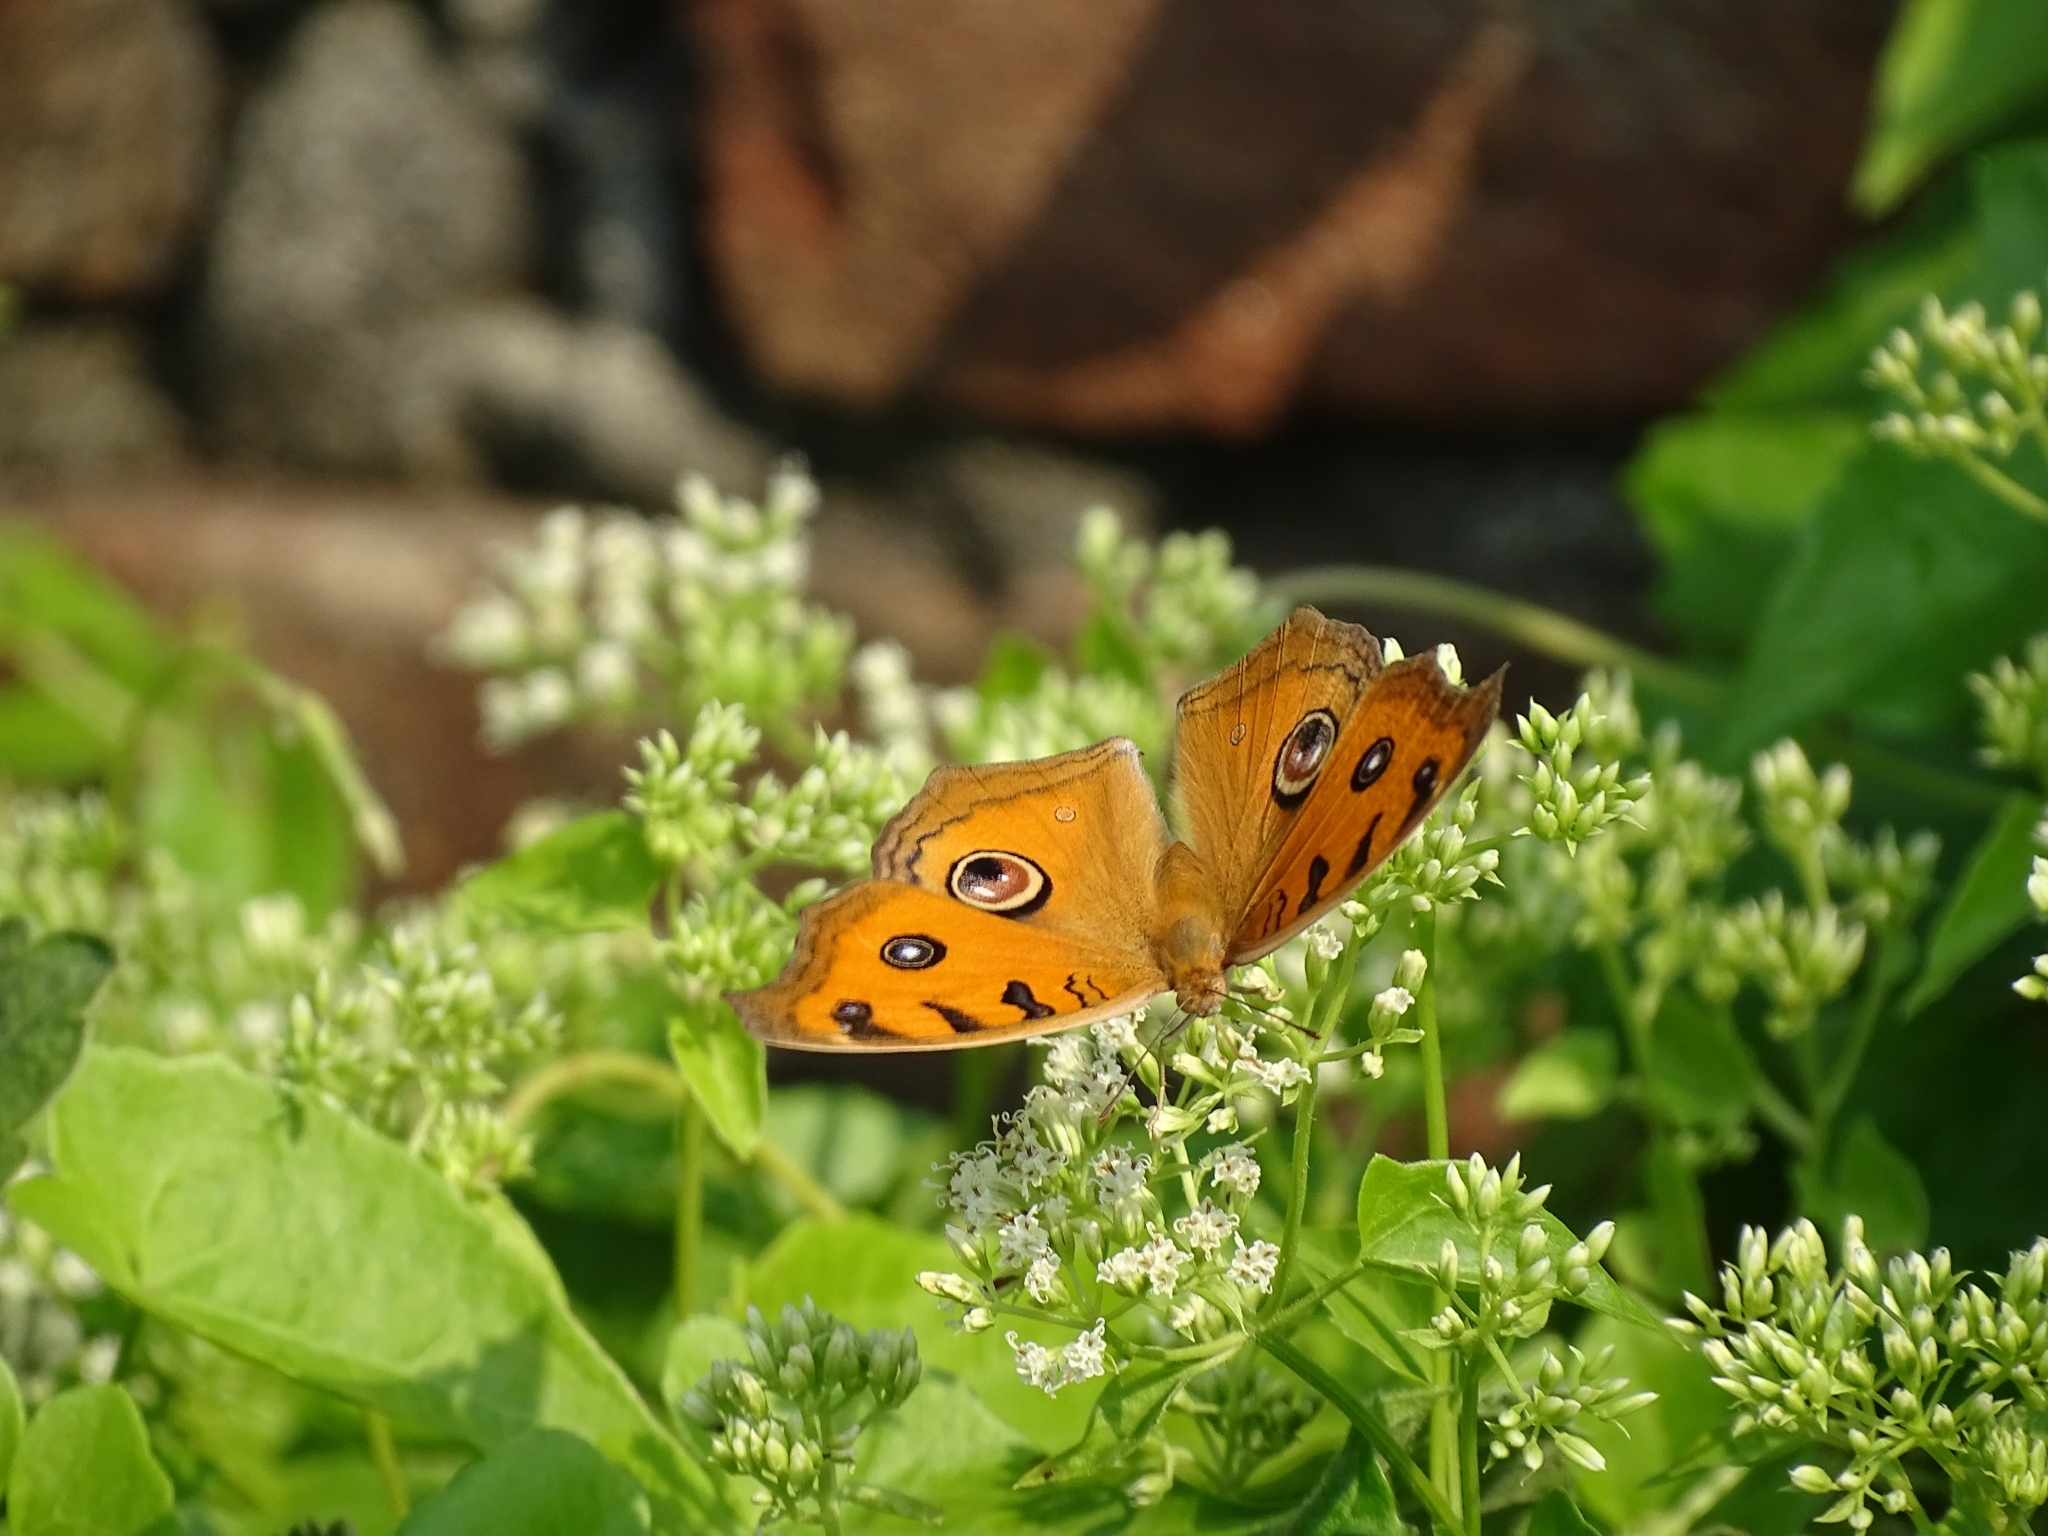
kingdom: Animalia
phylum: Arthropoda
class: Insecta
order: Lepidoptera
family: Nymphalidae
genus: Junonia
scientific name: Junonia almana
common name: Peacock pansy
